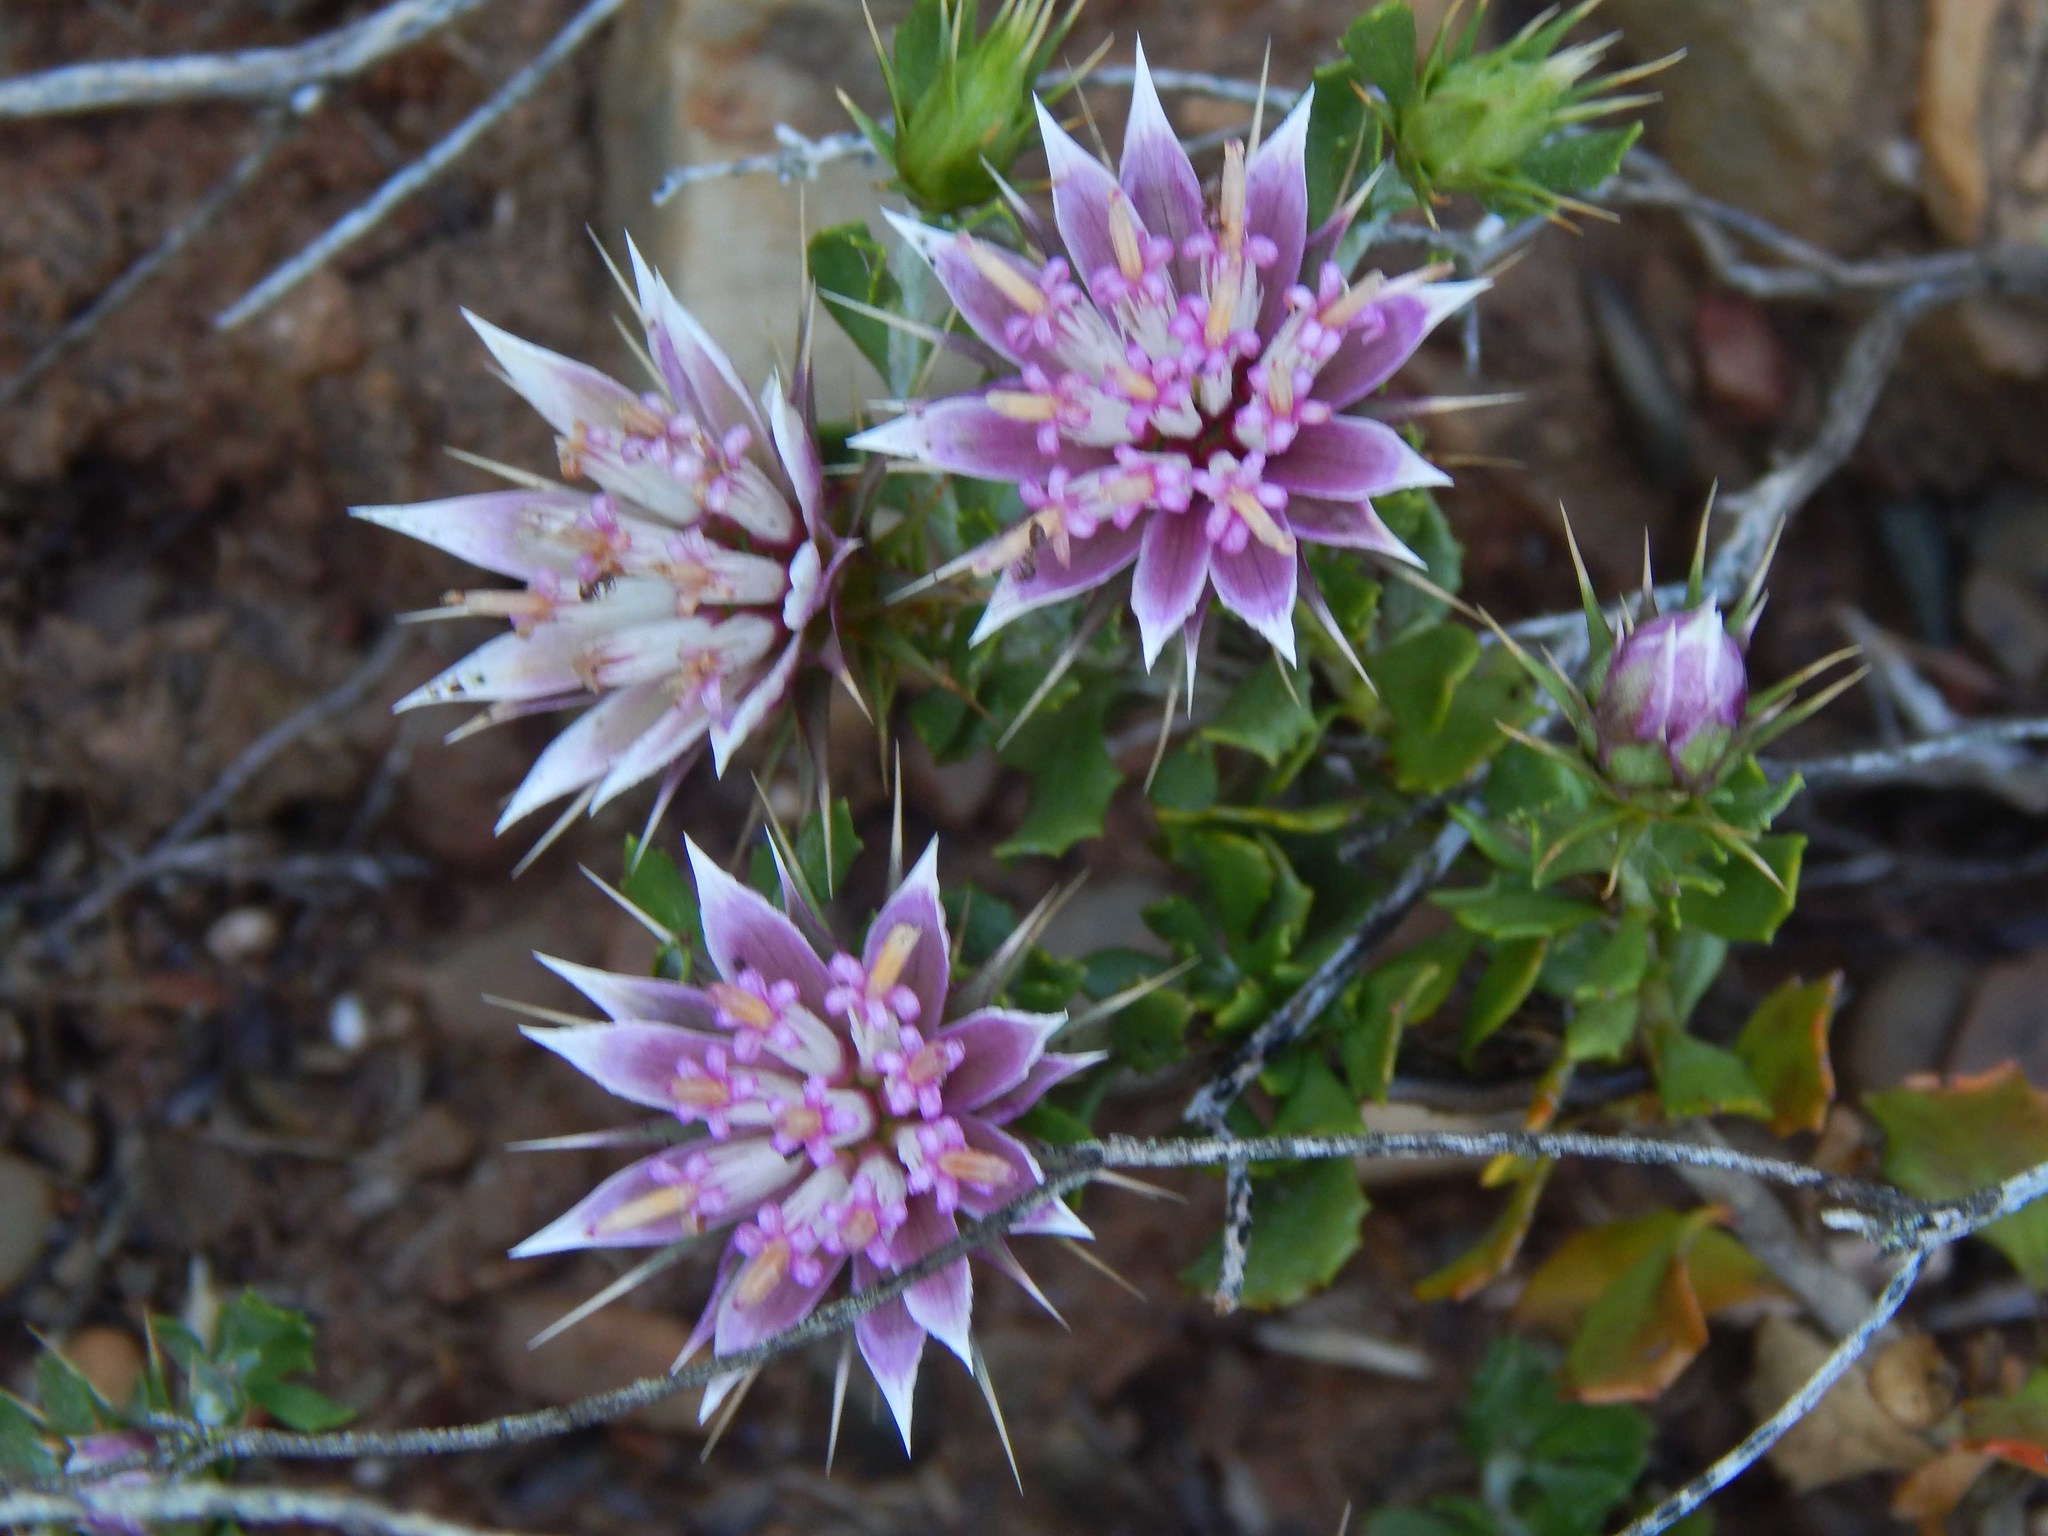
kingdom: Plantae
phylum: Tracheophyta
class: Magnoliopsida
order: Asterales
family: Asteraceae
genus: Macledium
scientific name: Macledium spinosum
